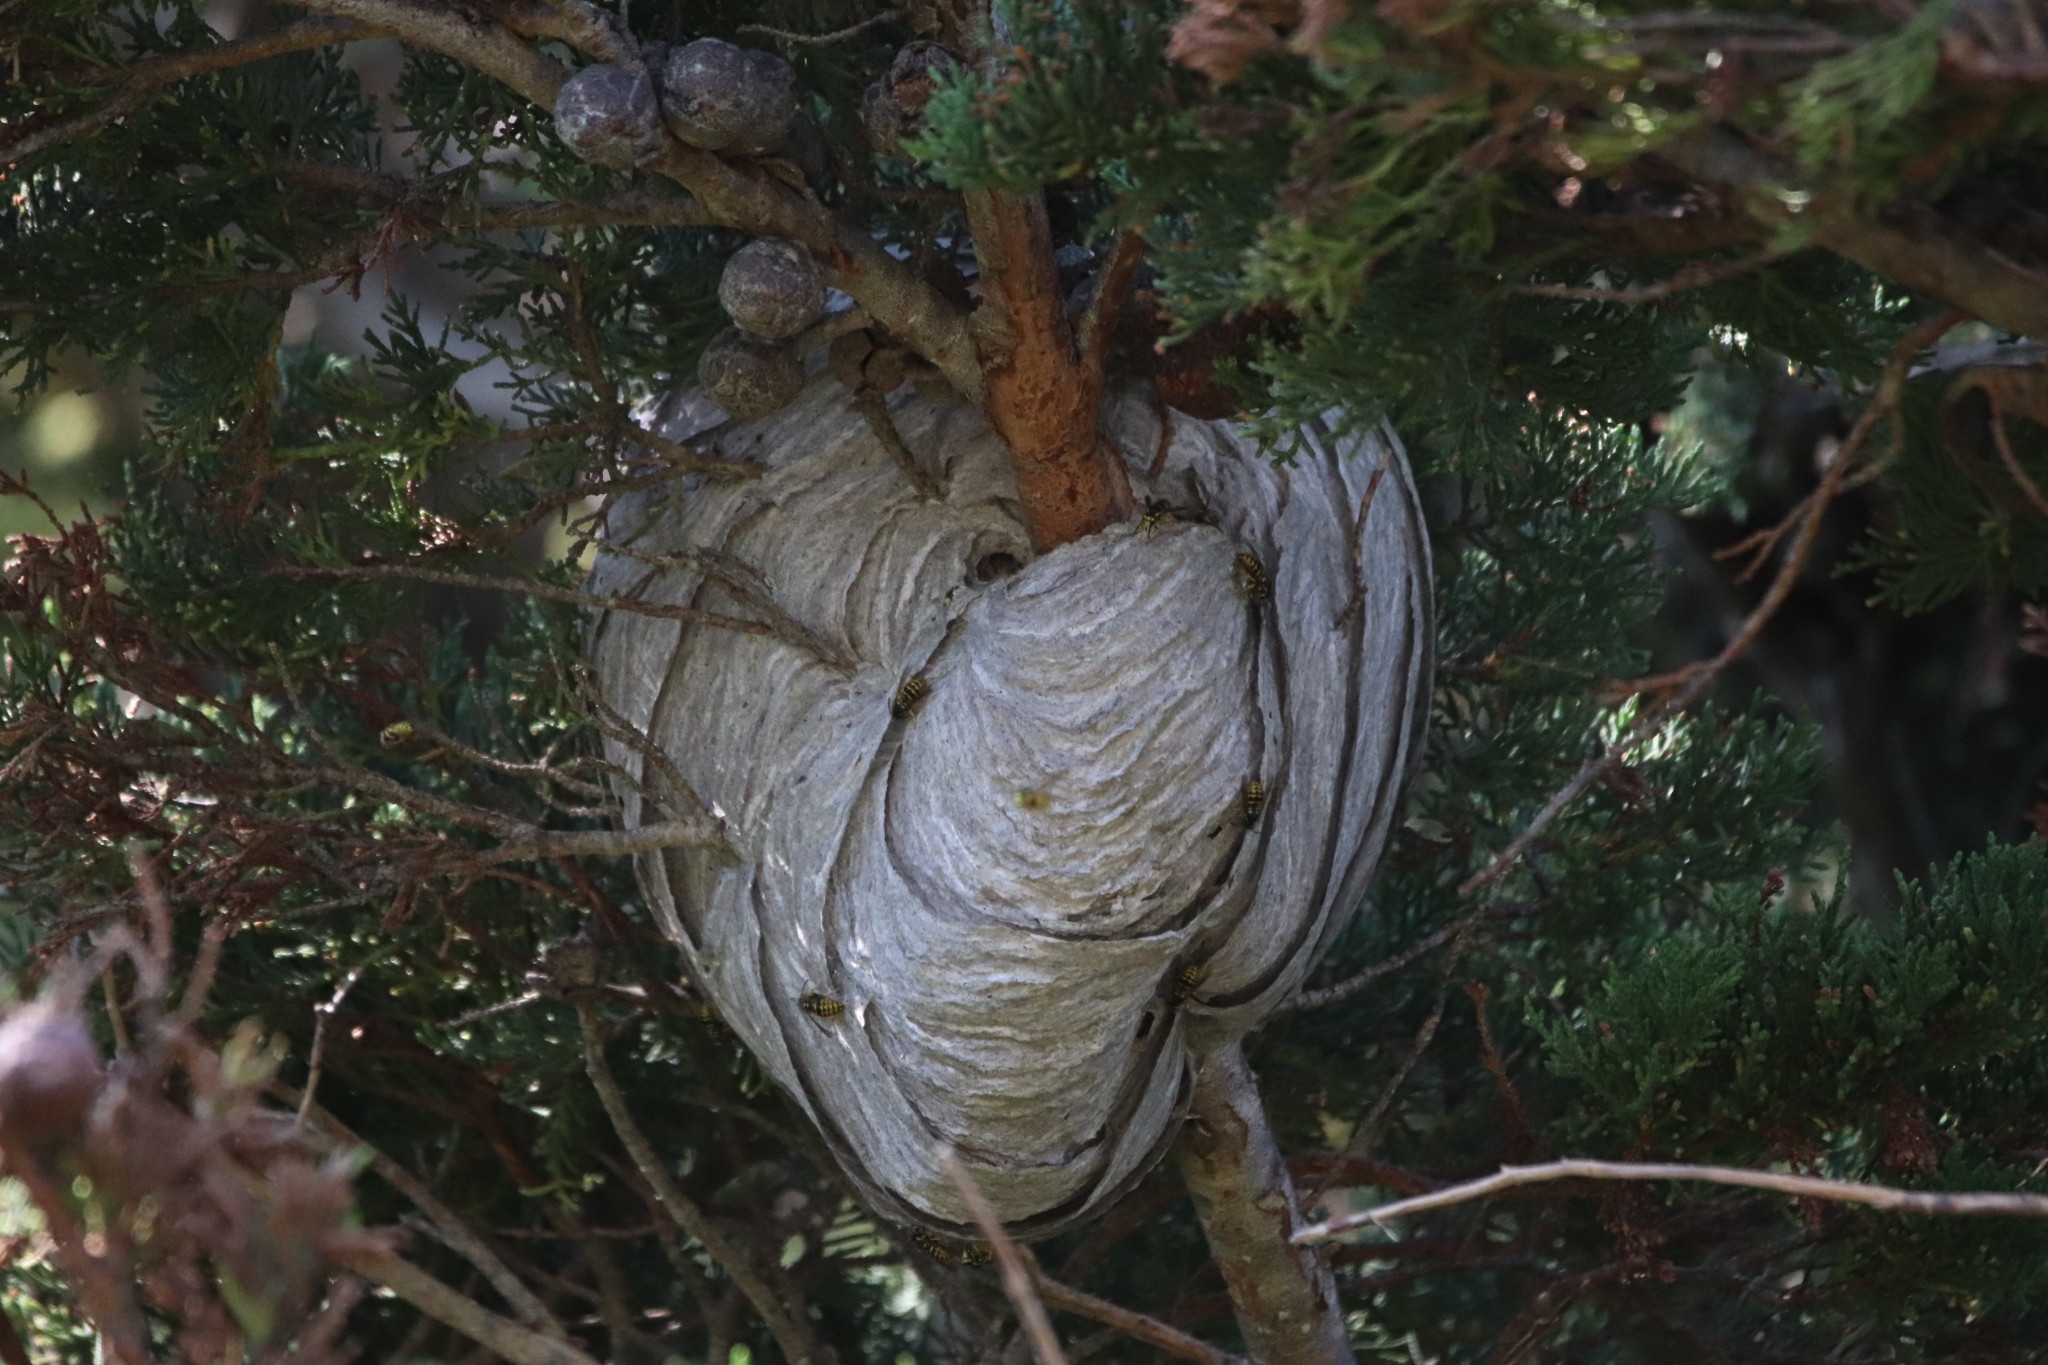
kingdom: Animalia
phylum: Arthropoda
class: Insecta
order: Hymenoptera
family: Vespidae
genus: Dolichovespula
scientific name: Dolichovespula arenaria
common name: Aerial yellowjacket
